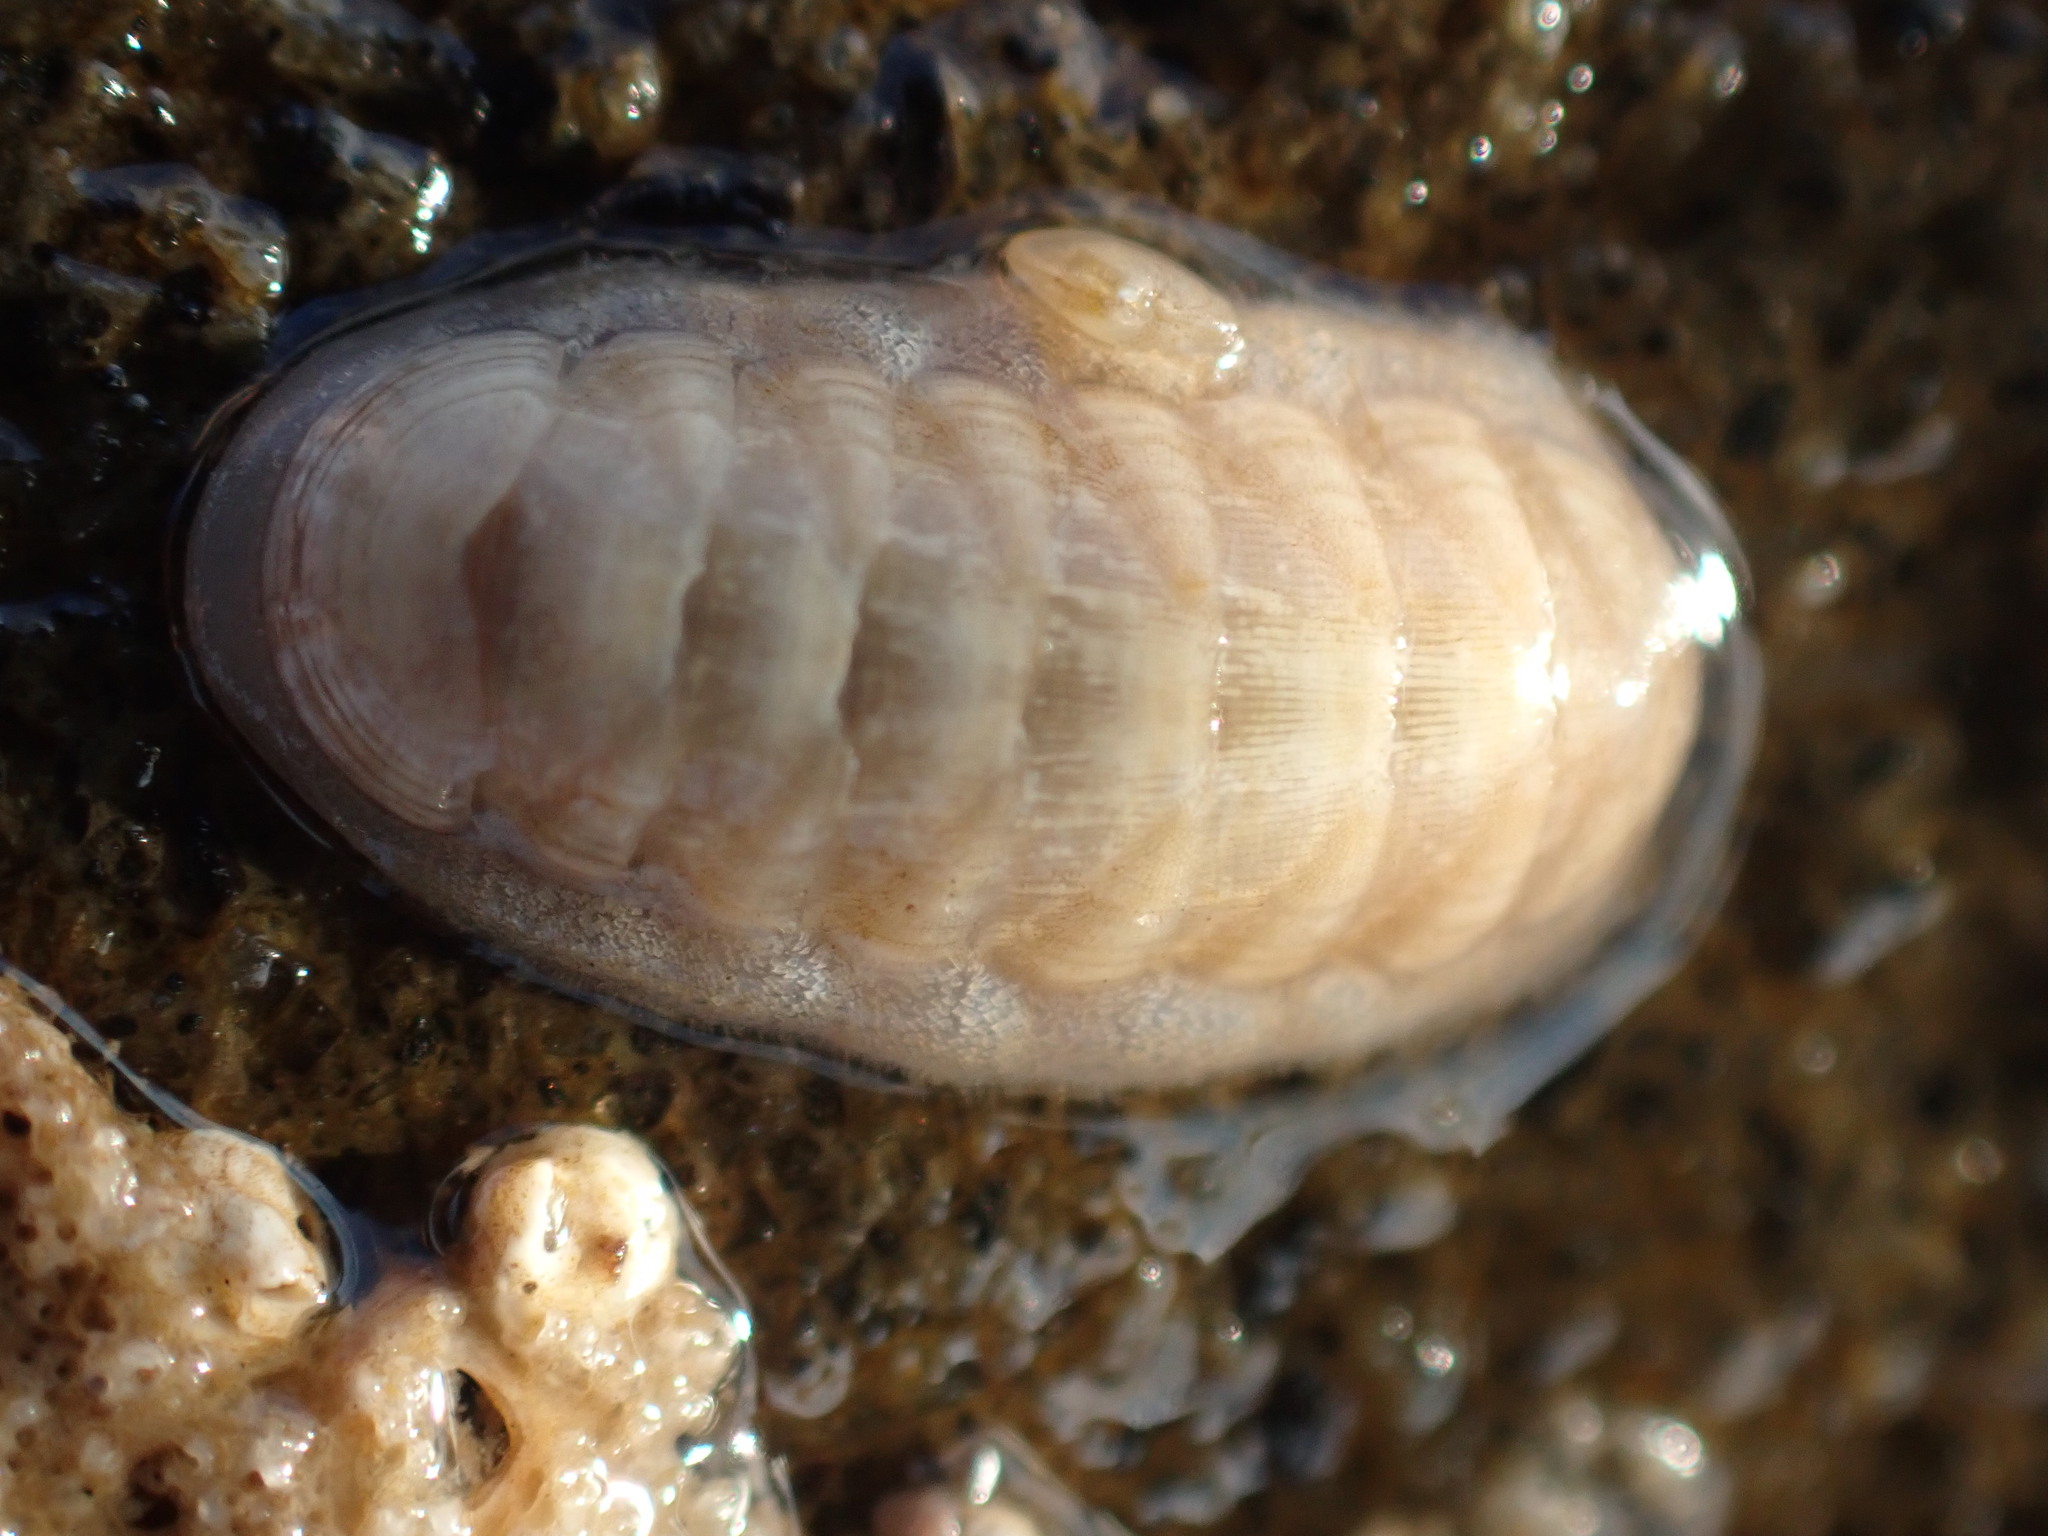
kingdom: Animalia
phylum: Mollusca
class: Polyplacophora
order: Lepidopleurida
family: Leptochitonidae
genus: Leptochiton
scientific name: Leptochiton inquinatus
